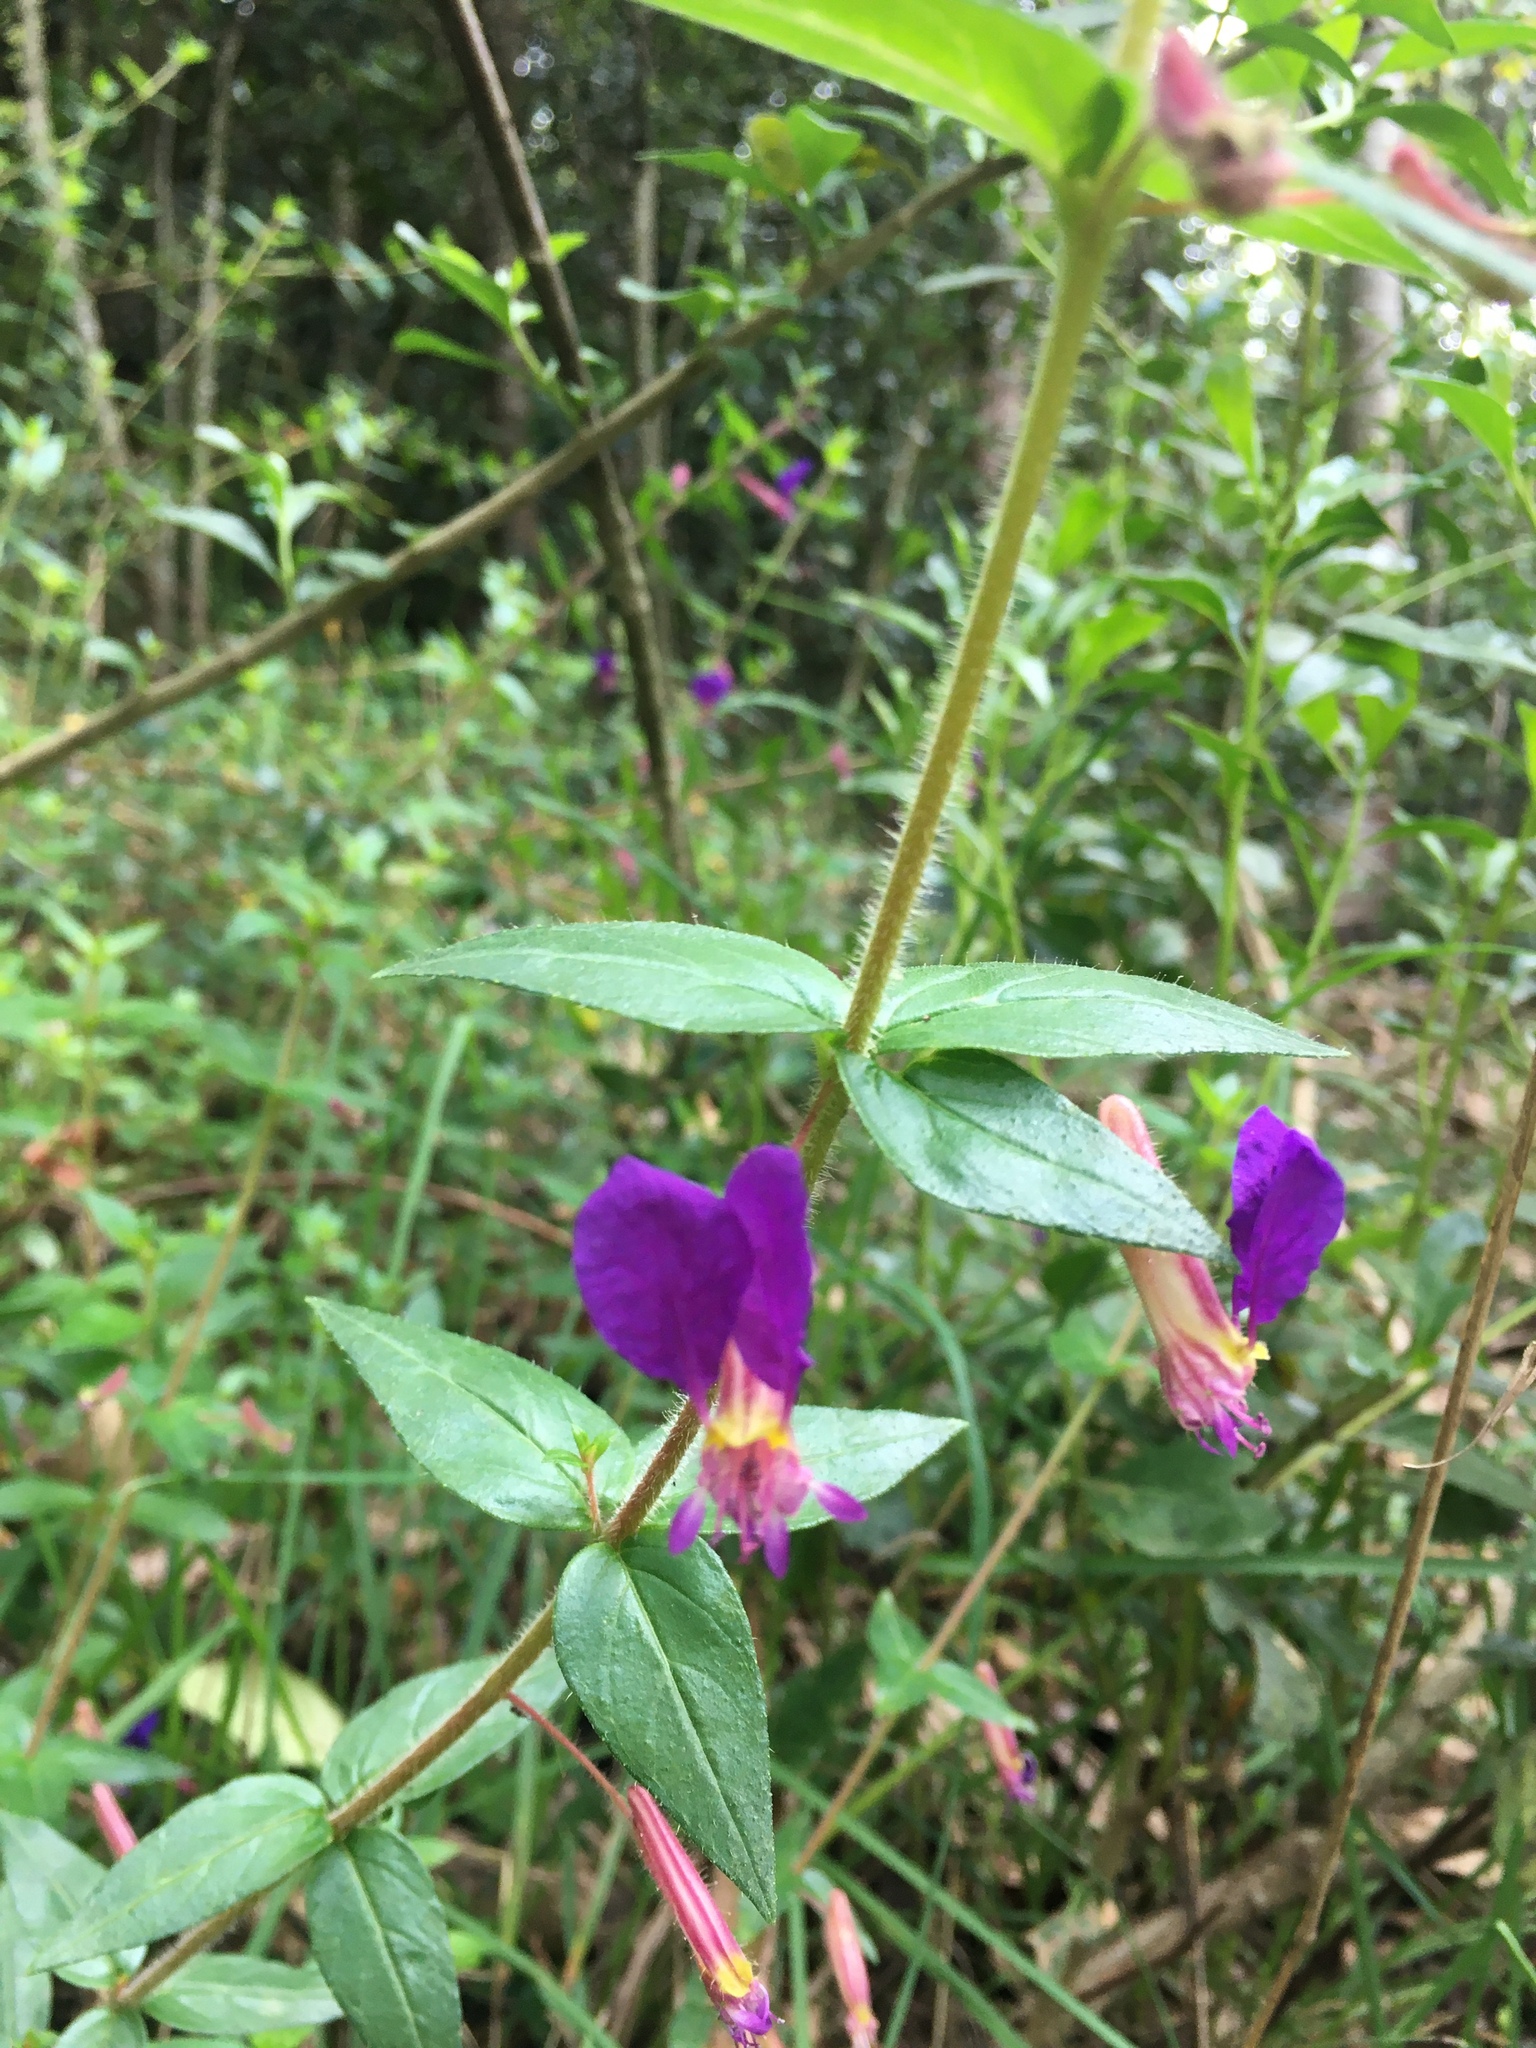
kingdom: Plantae
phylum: Tracheophyta
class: Magnoliopsida
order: Myrtales
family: Lythraceae
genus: Cuphea
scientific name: Cuphea dipetala
